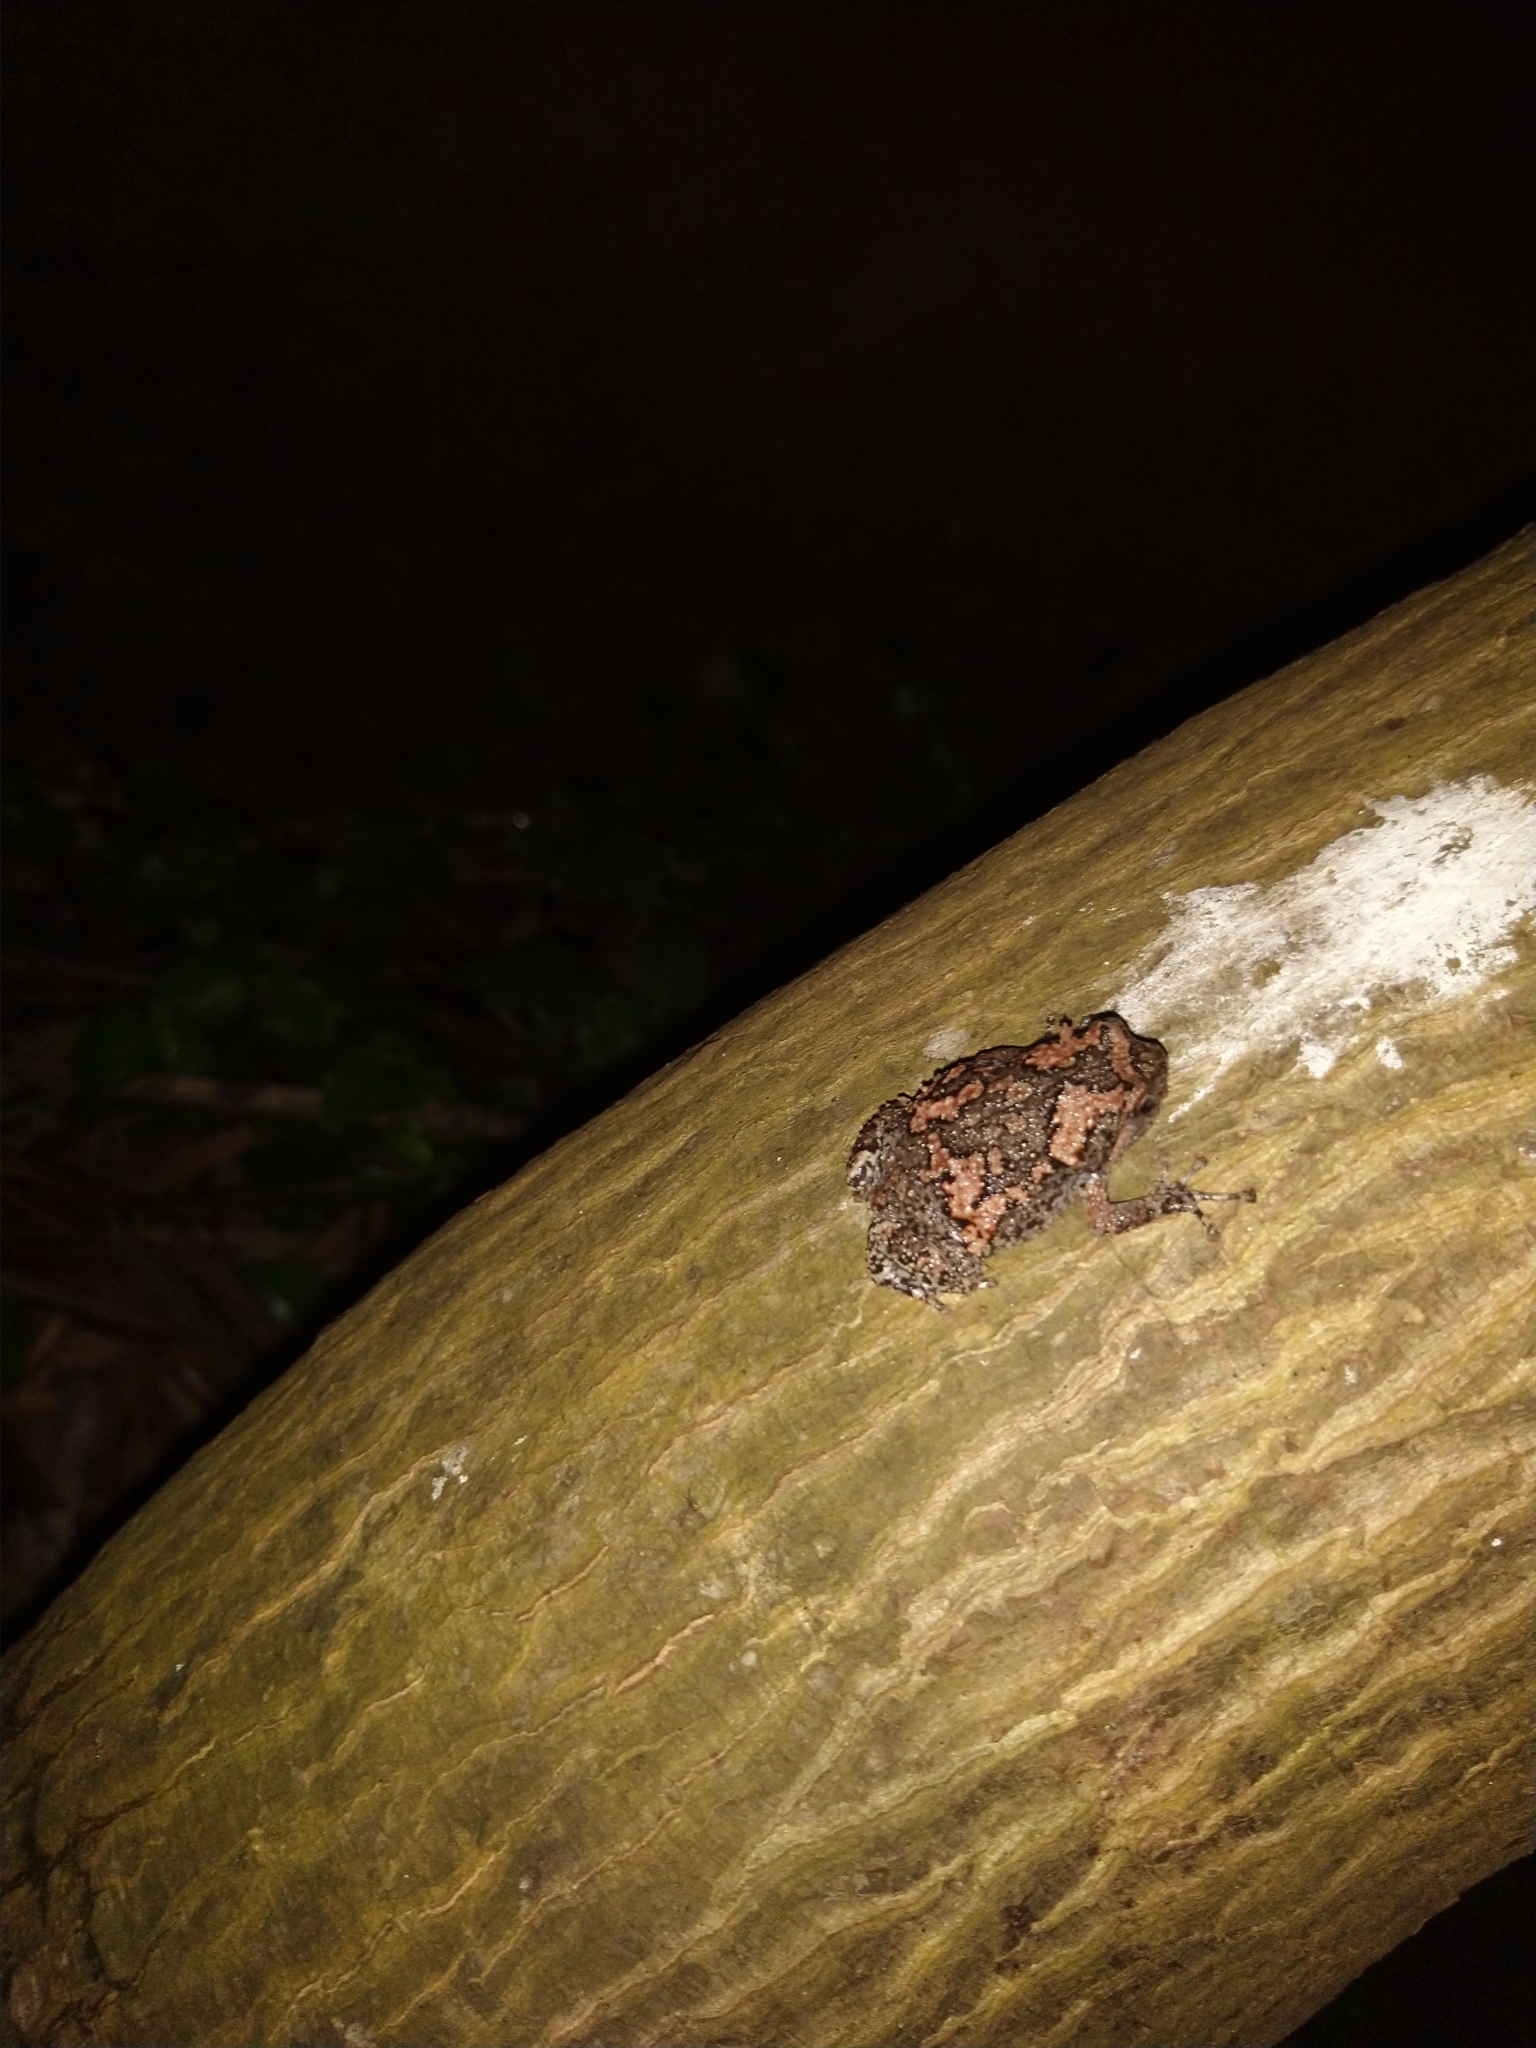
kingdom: Animalia
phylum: Chordata
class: Amphibia
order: Anura
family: Microhylidae
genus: Uperodon
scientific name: Uperodon taprobanicus
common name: Ceylon kaloula
